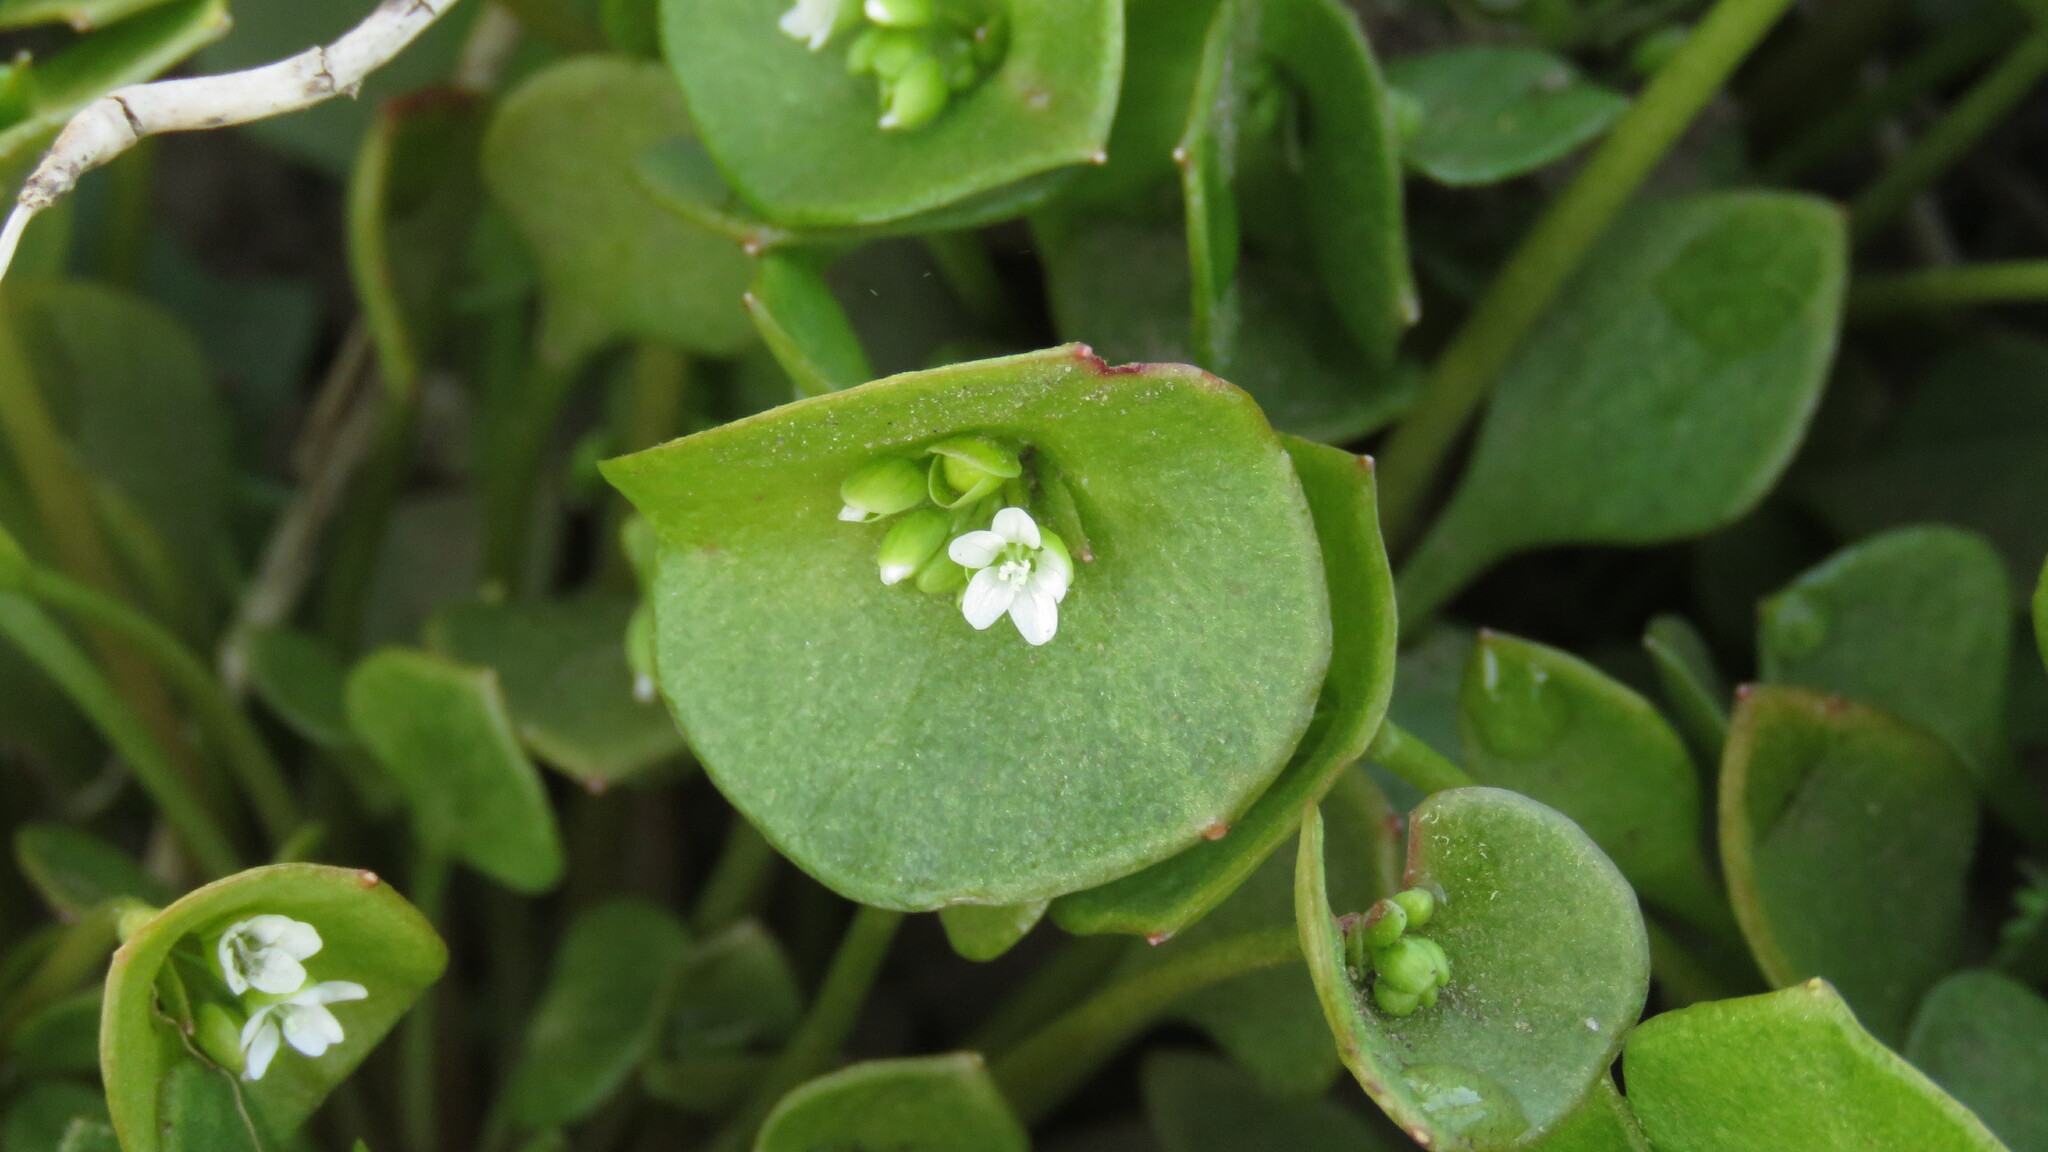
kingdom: Plantae
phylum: Tracheophyta
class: Magnoliopsida
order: Caryophyllales
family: Montiaceae
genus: Claytonia
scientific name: Claytonia perfoliata
